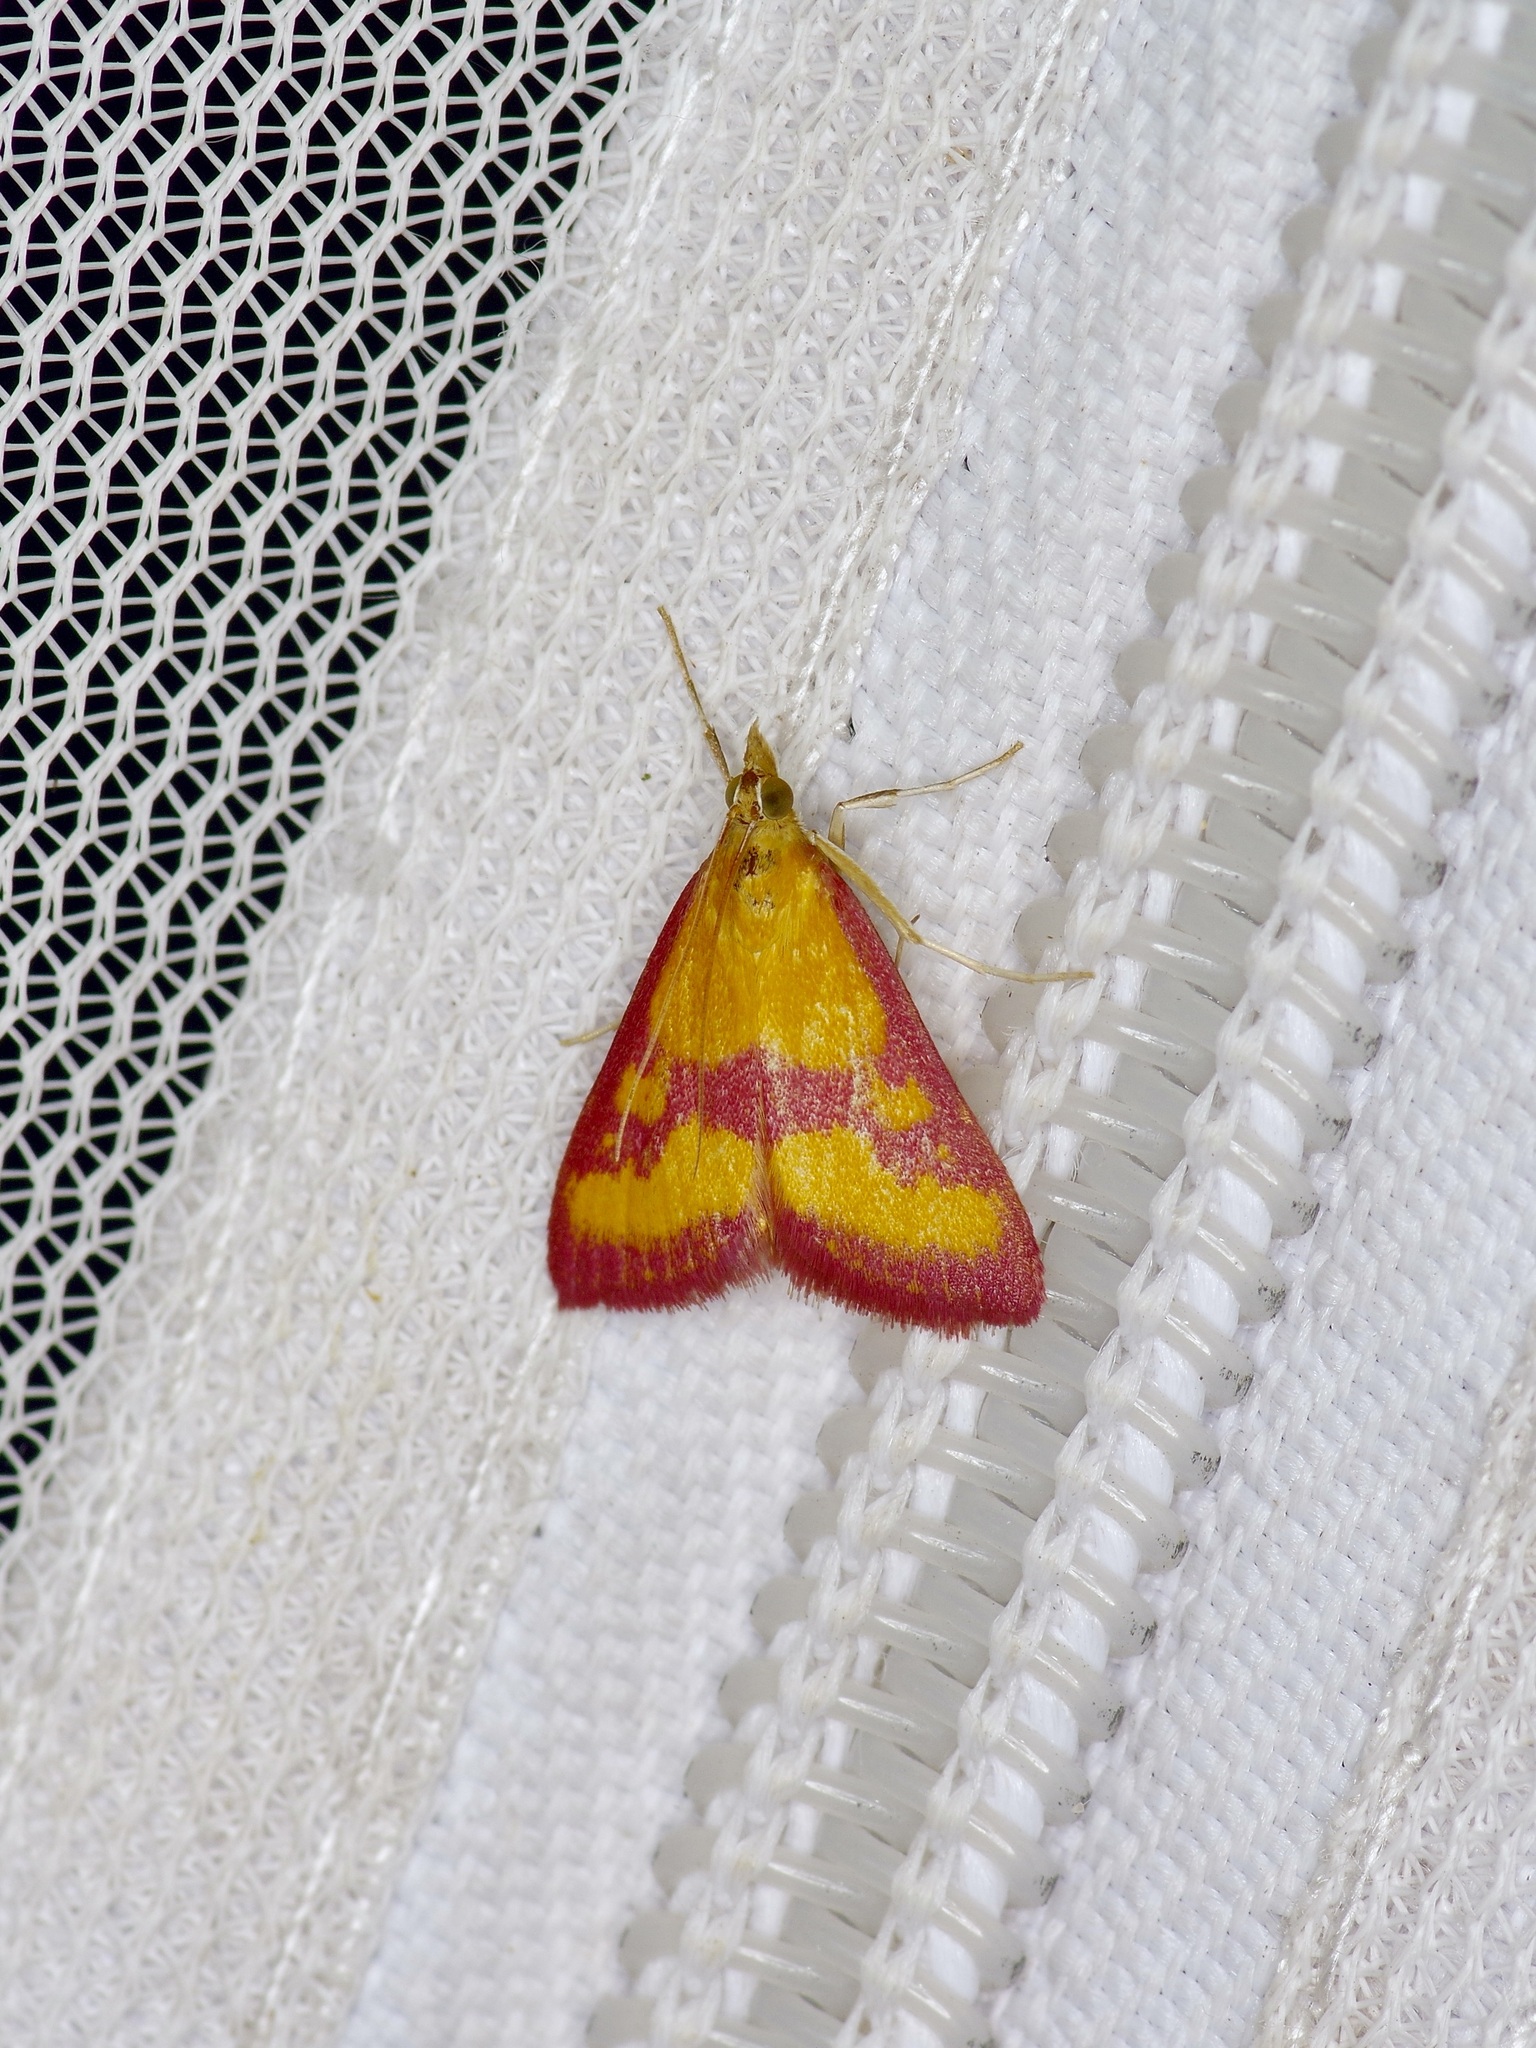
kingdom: Animalia
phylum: Arthropoda
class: Insecta
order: Lepidoptera
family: Crambidae
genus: Pyrausta
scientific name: Pyrausta laticlavia
